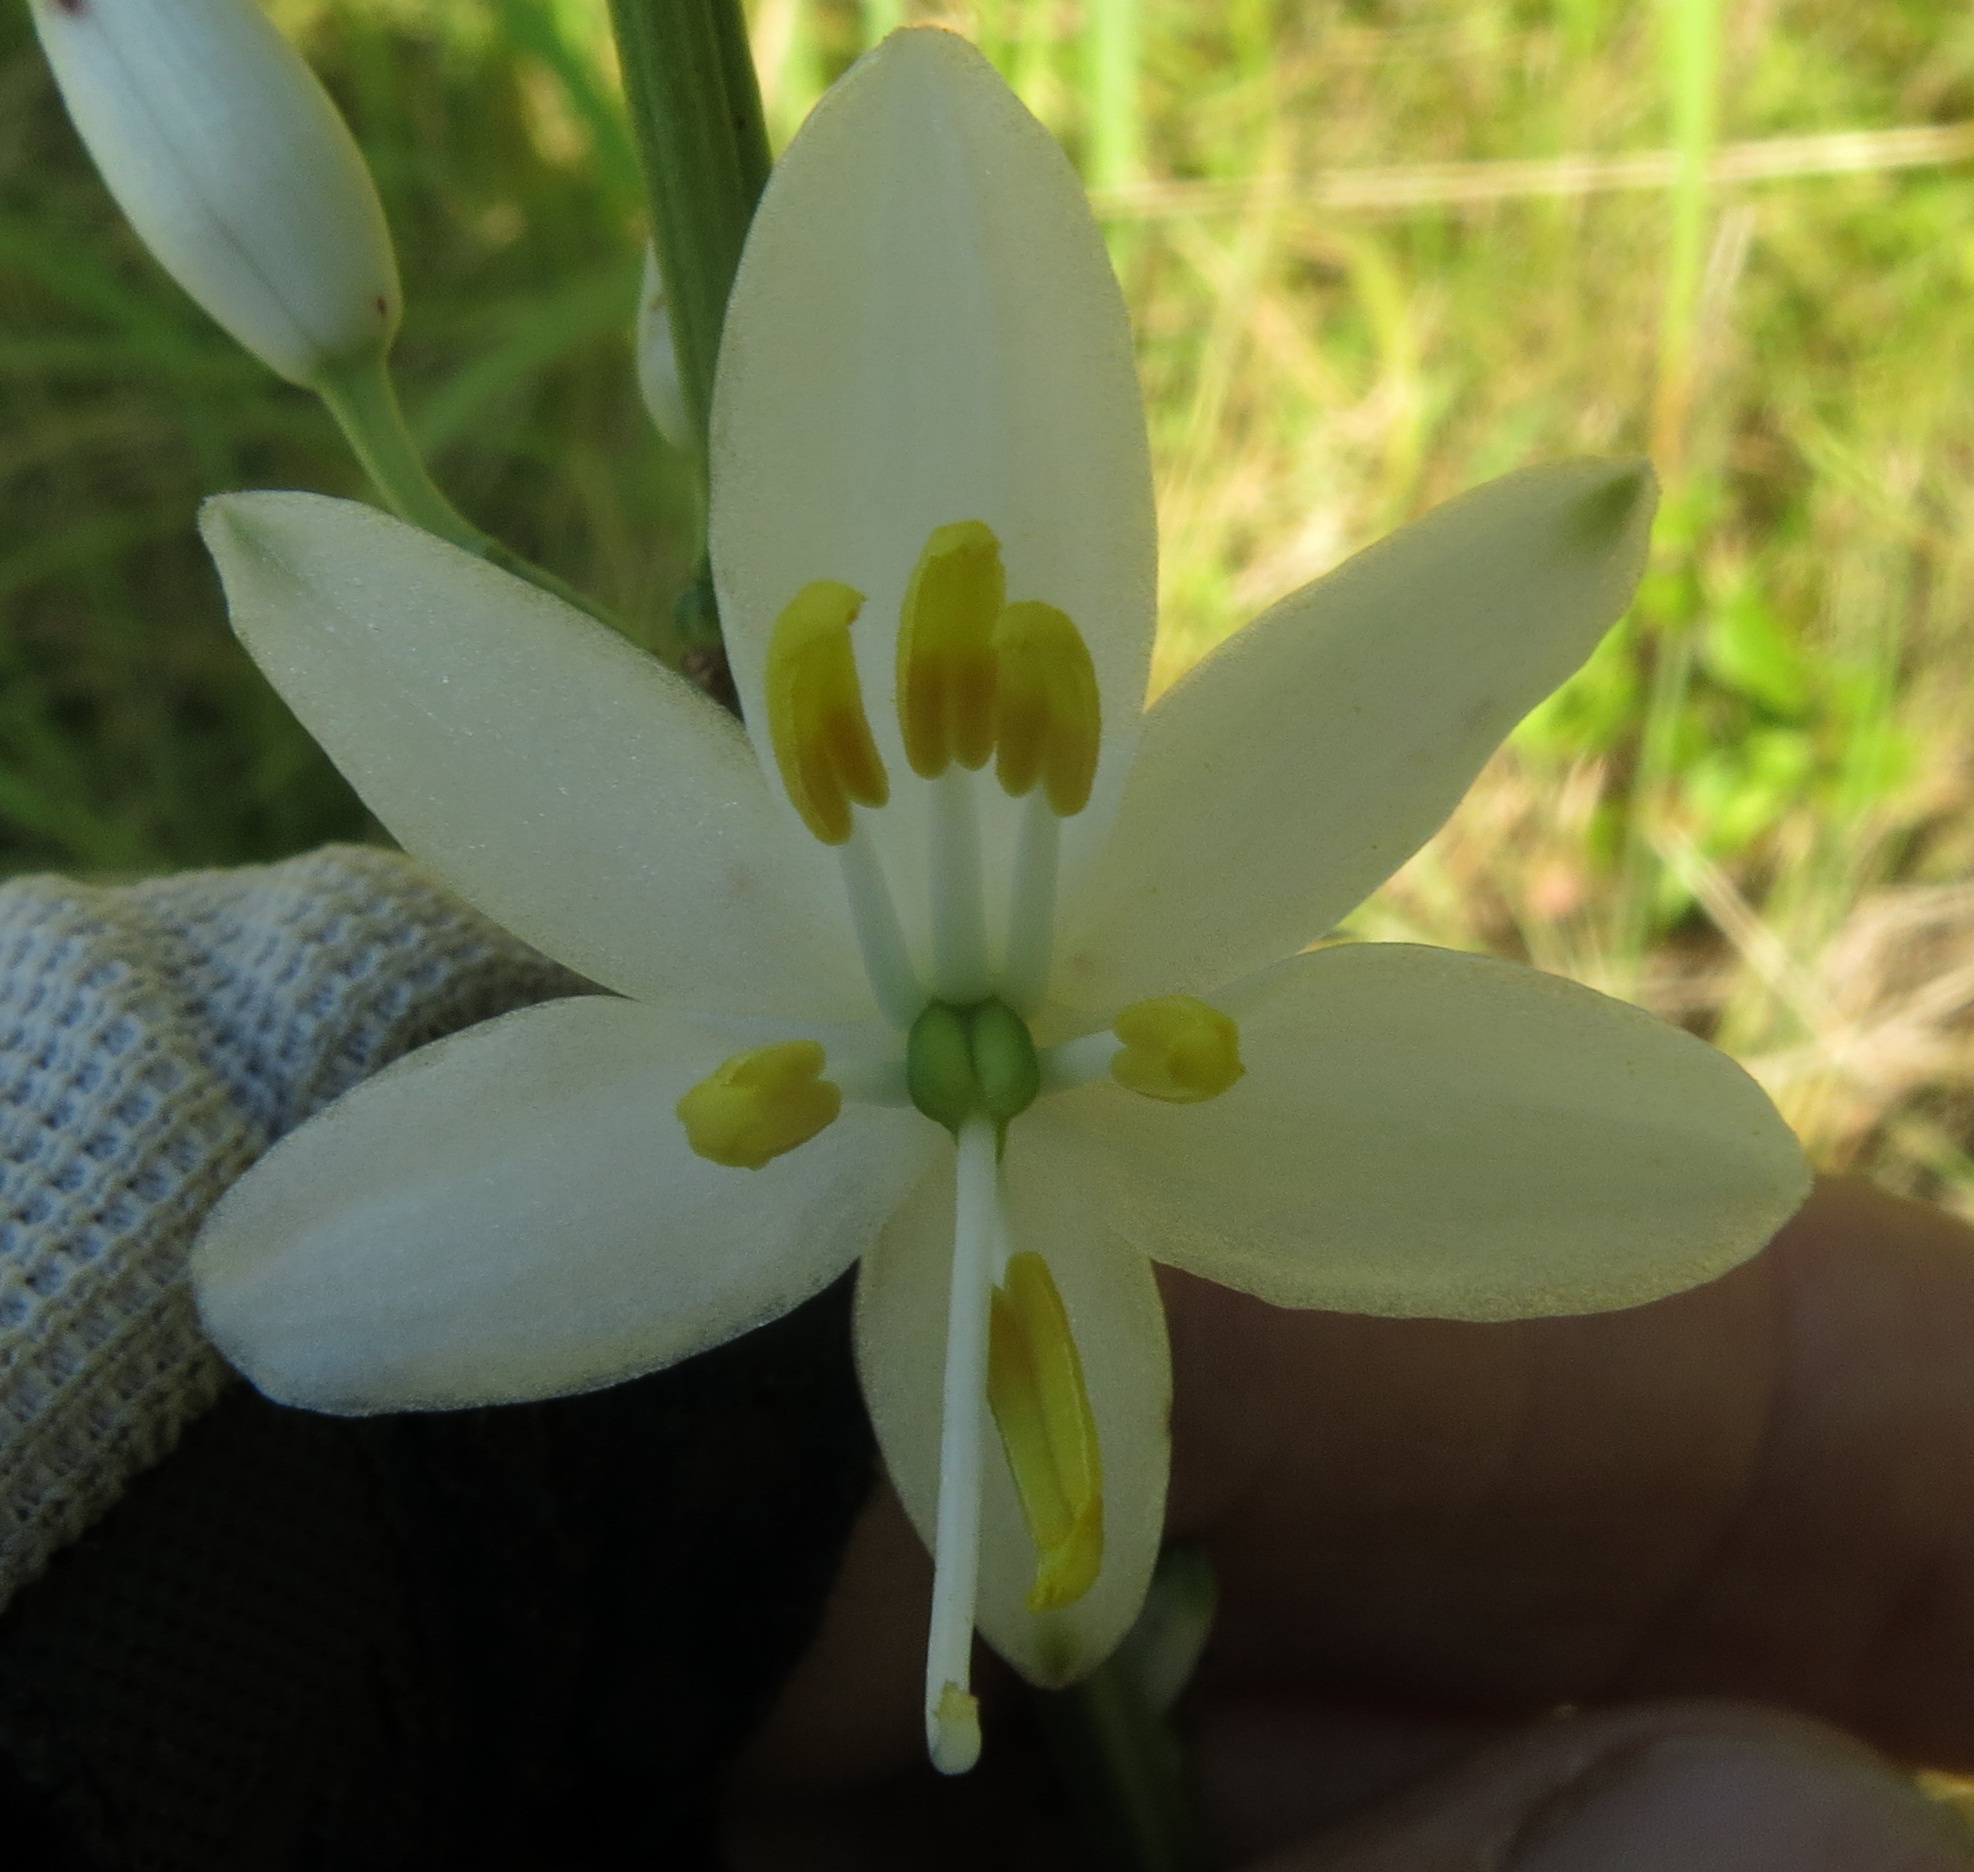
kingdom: Plantae
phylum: Tracheophyta
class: Liliopsida
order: Asparagales
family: Asparagaceae
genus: Chlorophytum
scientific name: Chlorophytum krookianum
